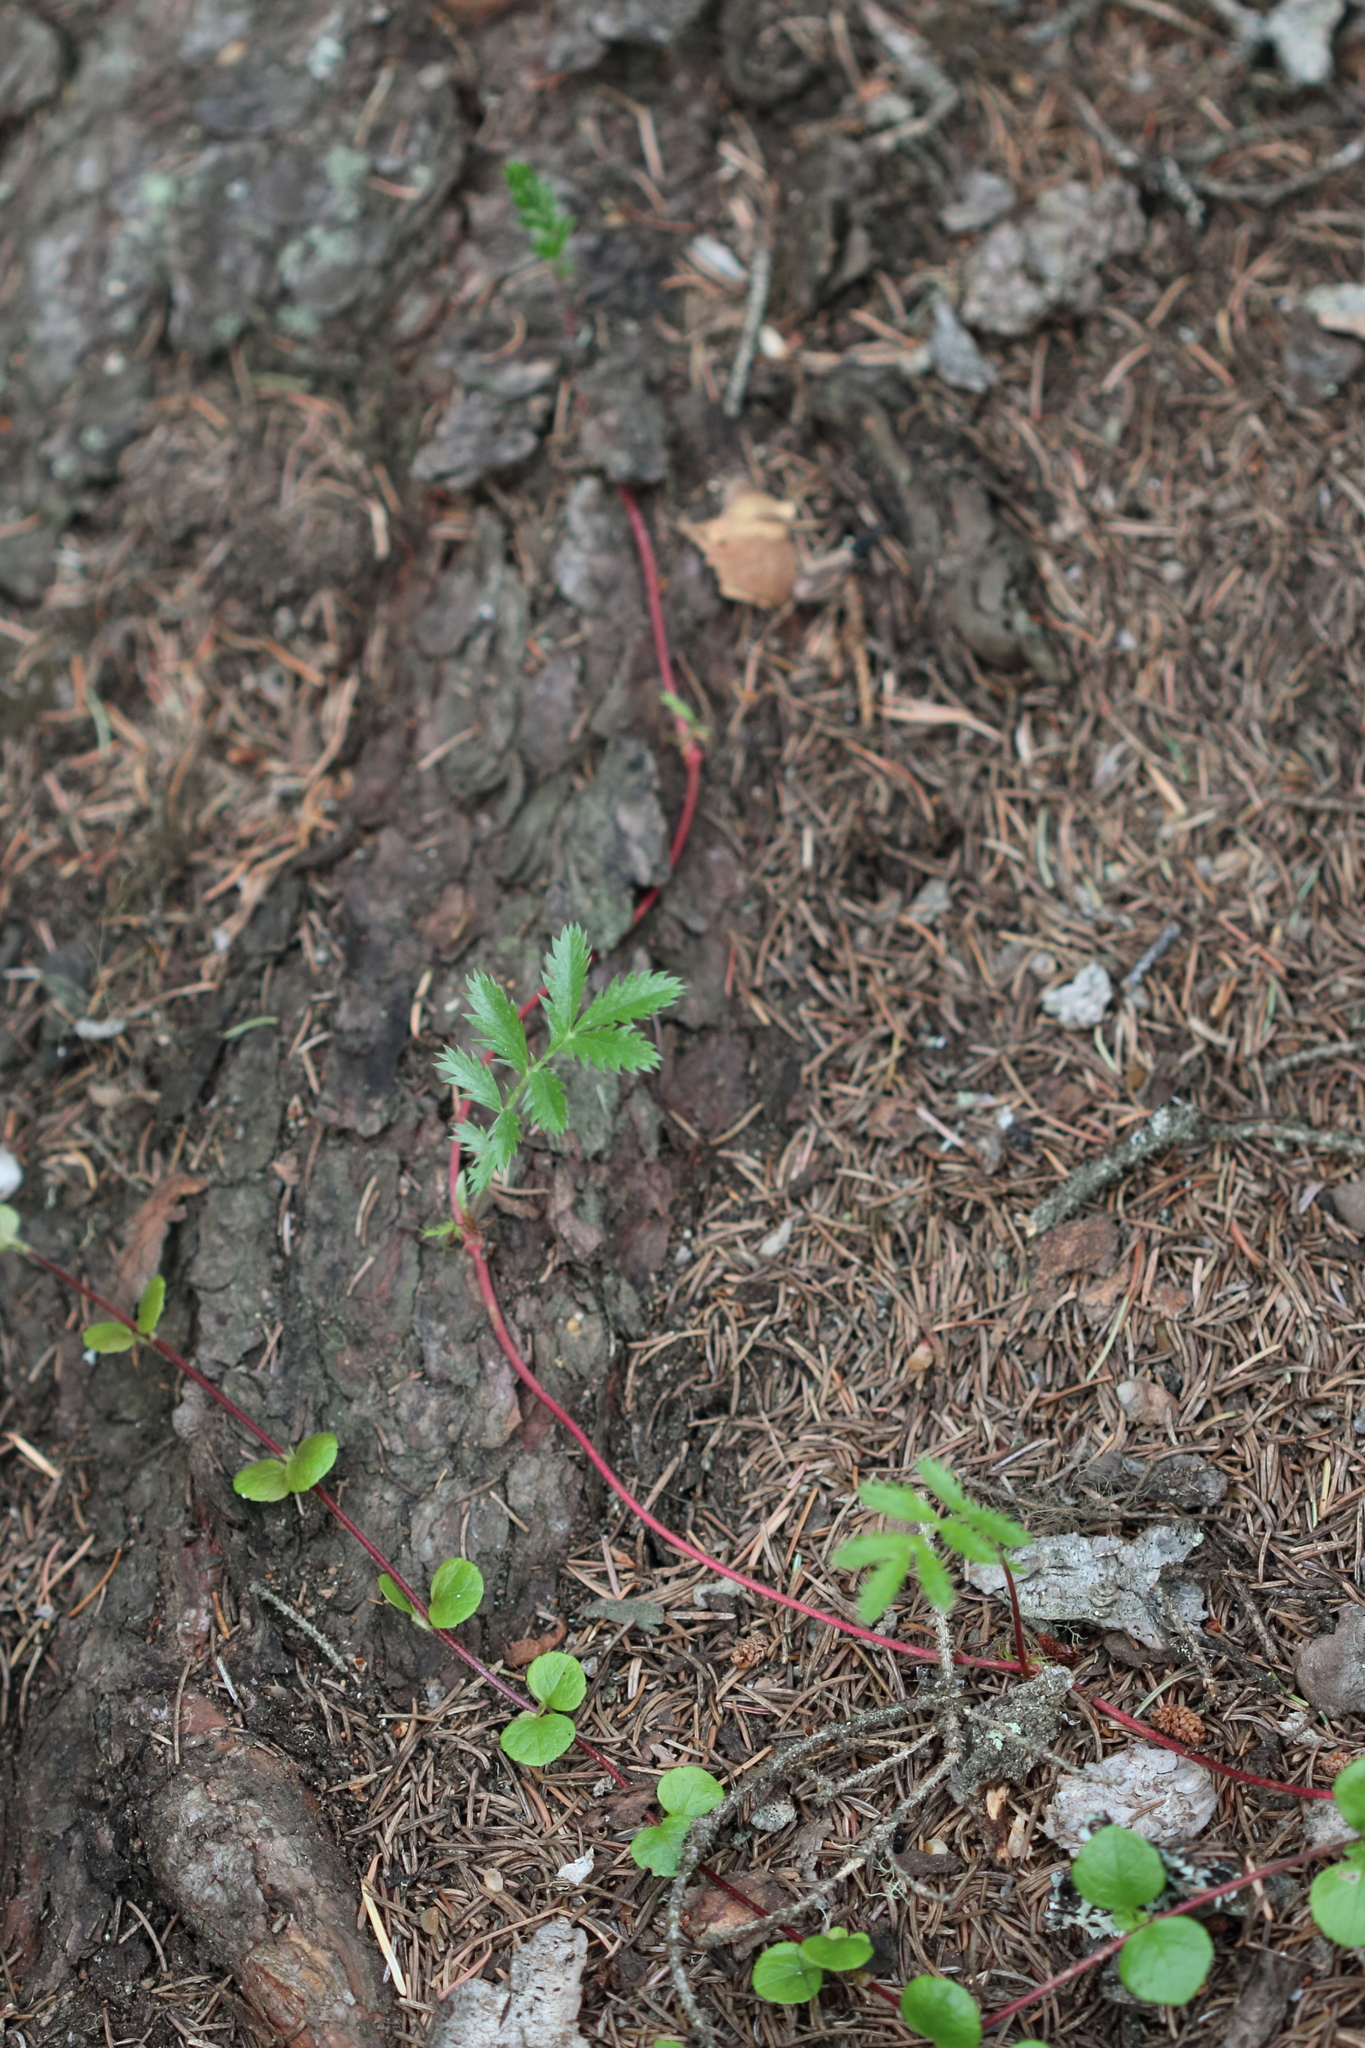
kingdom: Plantae
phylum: Tracheophyta
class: Magnoliopsida
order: Rosales
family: Rosaceae
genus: Argentina
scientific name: Argentina anserina
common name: Common silverweed
